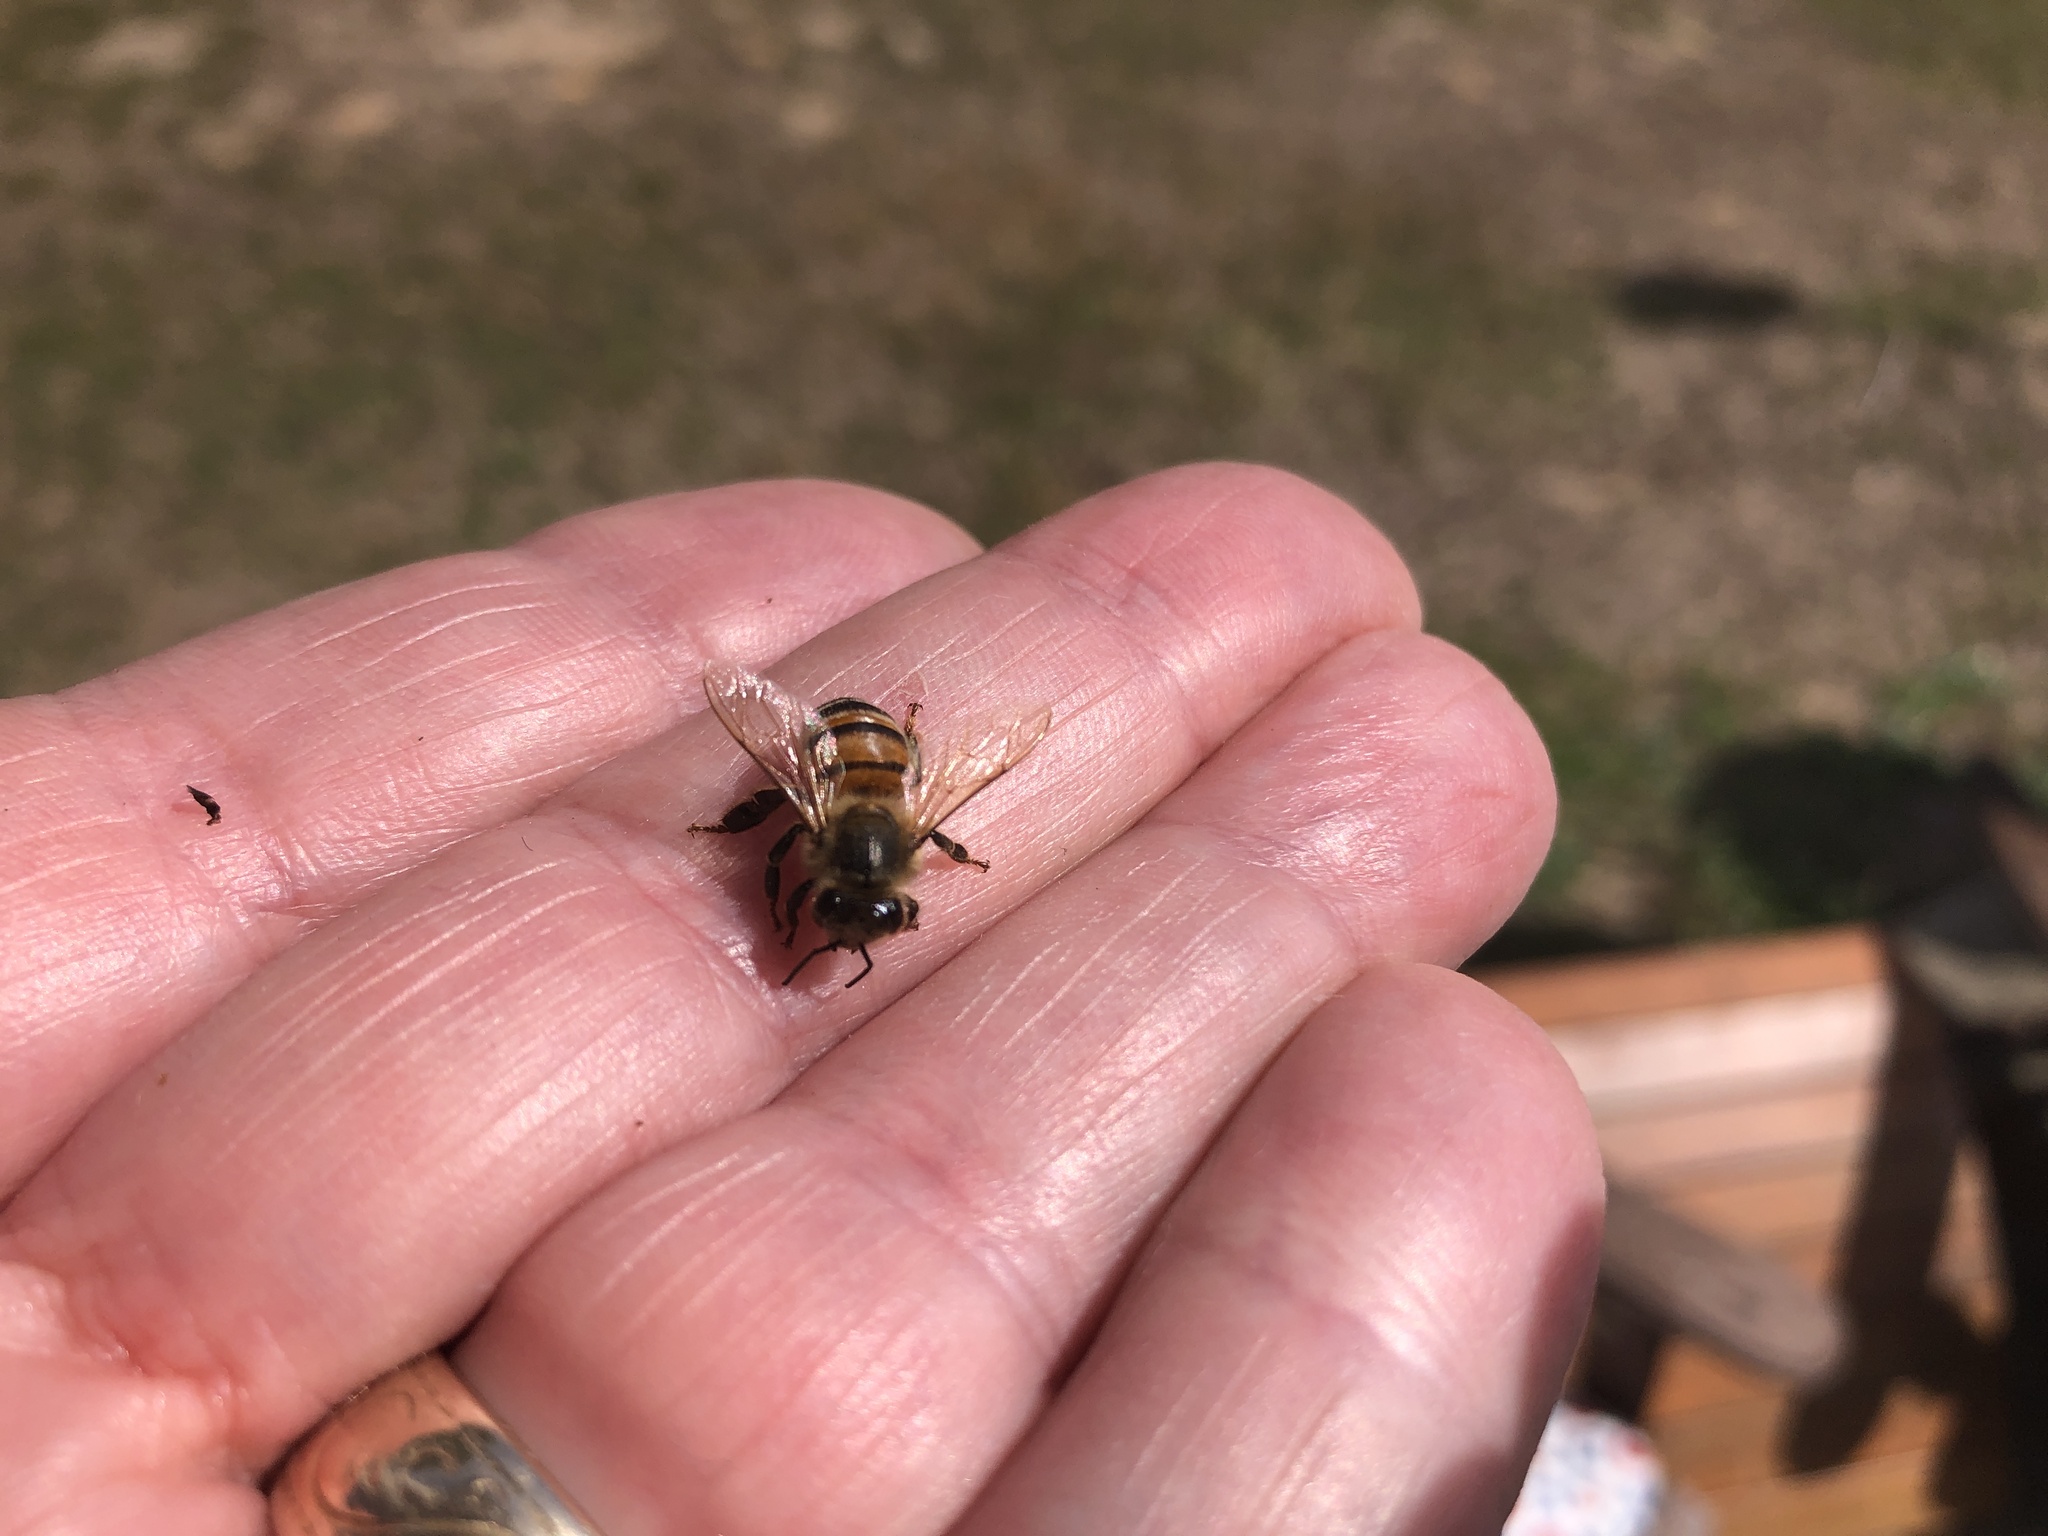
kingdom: Animalia
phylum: Arthropoda
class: Insecta
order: Hymenoptera
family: Apidae
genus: Apis
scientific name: Apis mellifera
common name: Honey bee
